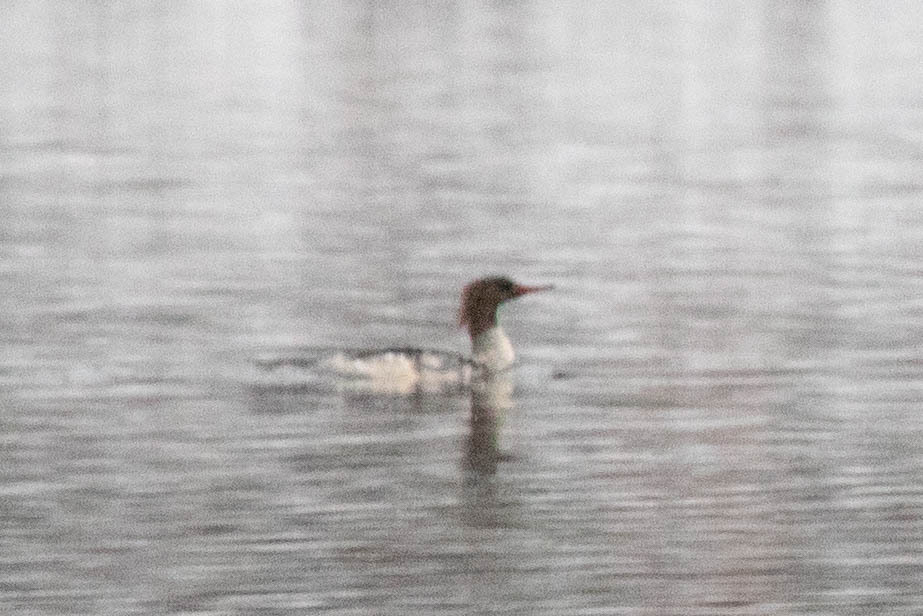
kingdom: Animalia
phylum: Chordata
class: Aves
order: Anseriformes
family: Anatidae
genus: Mergus
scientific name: Mergus merganser
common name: Common merganser
